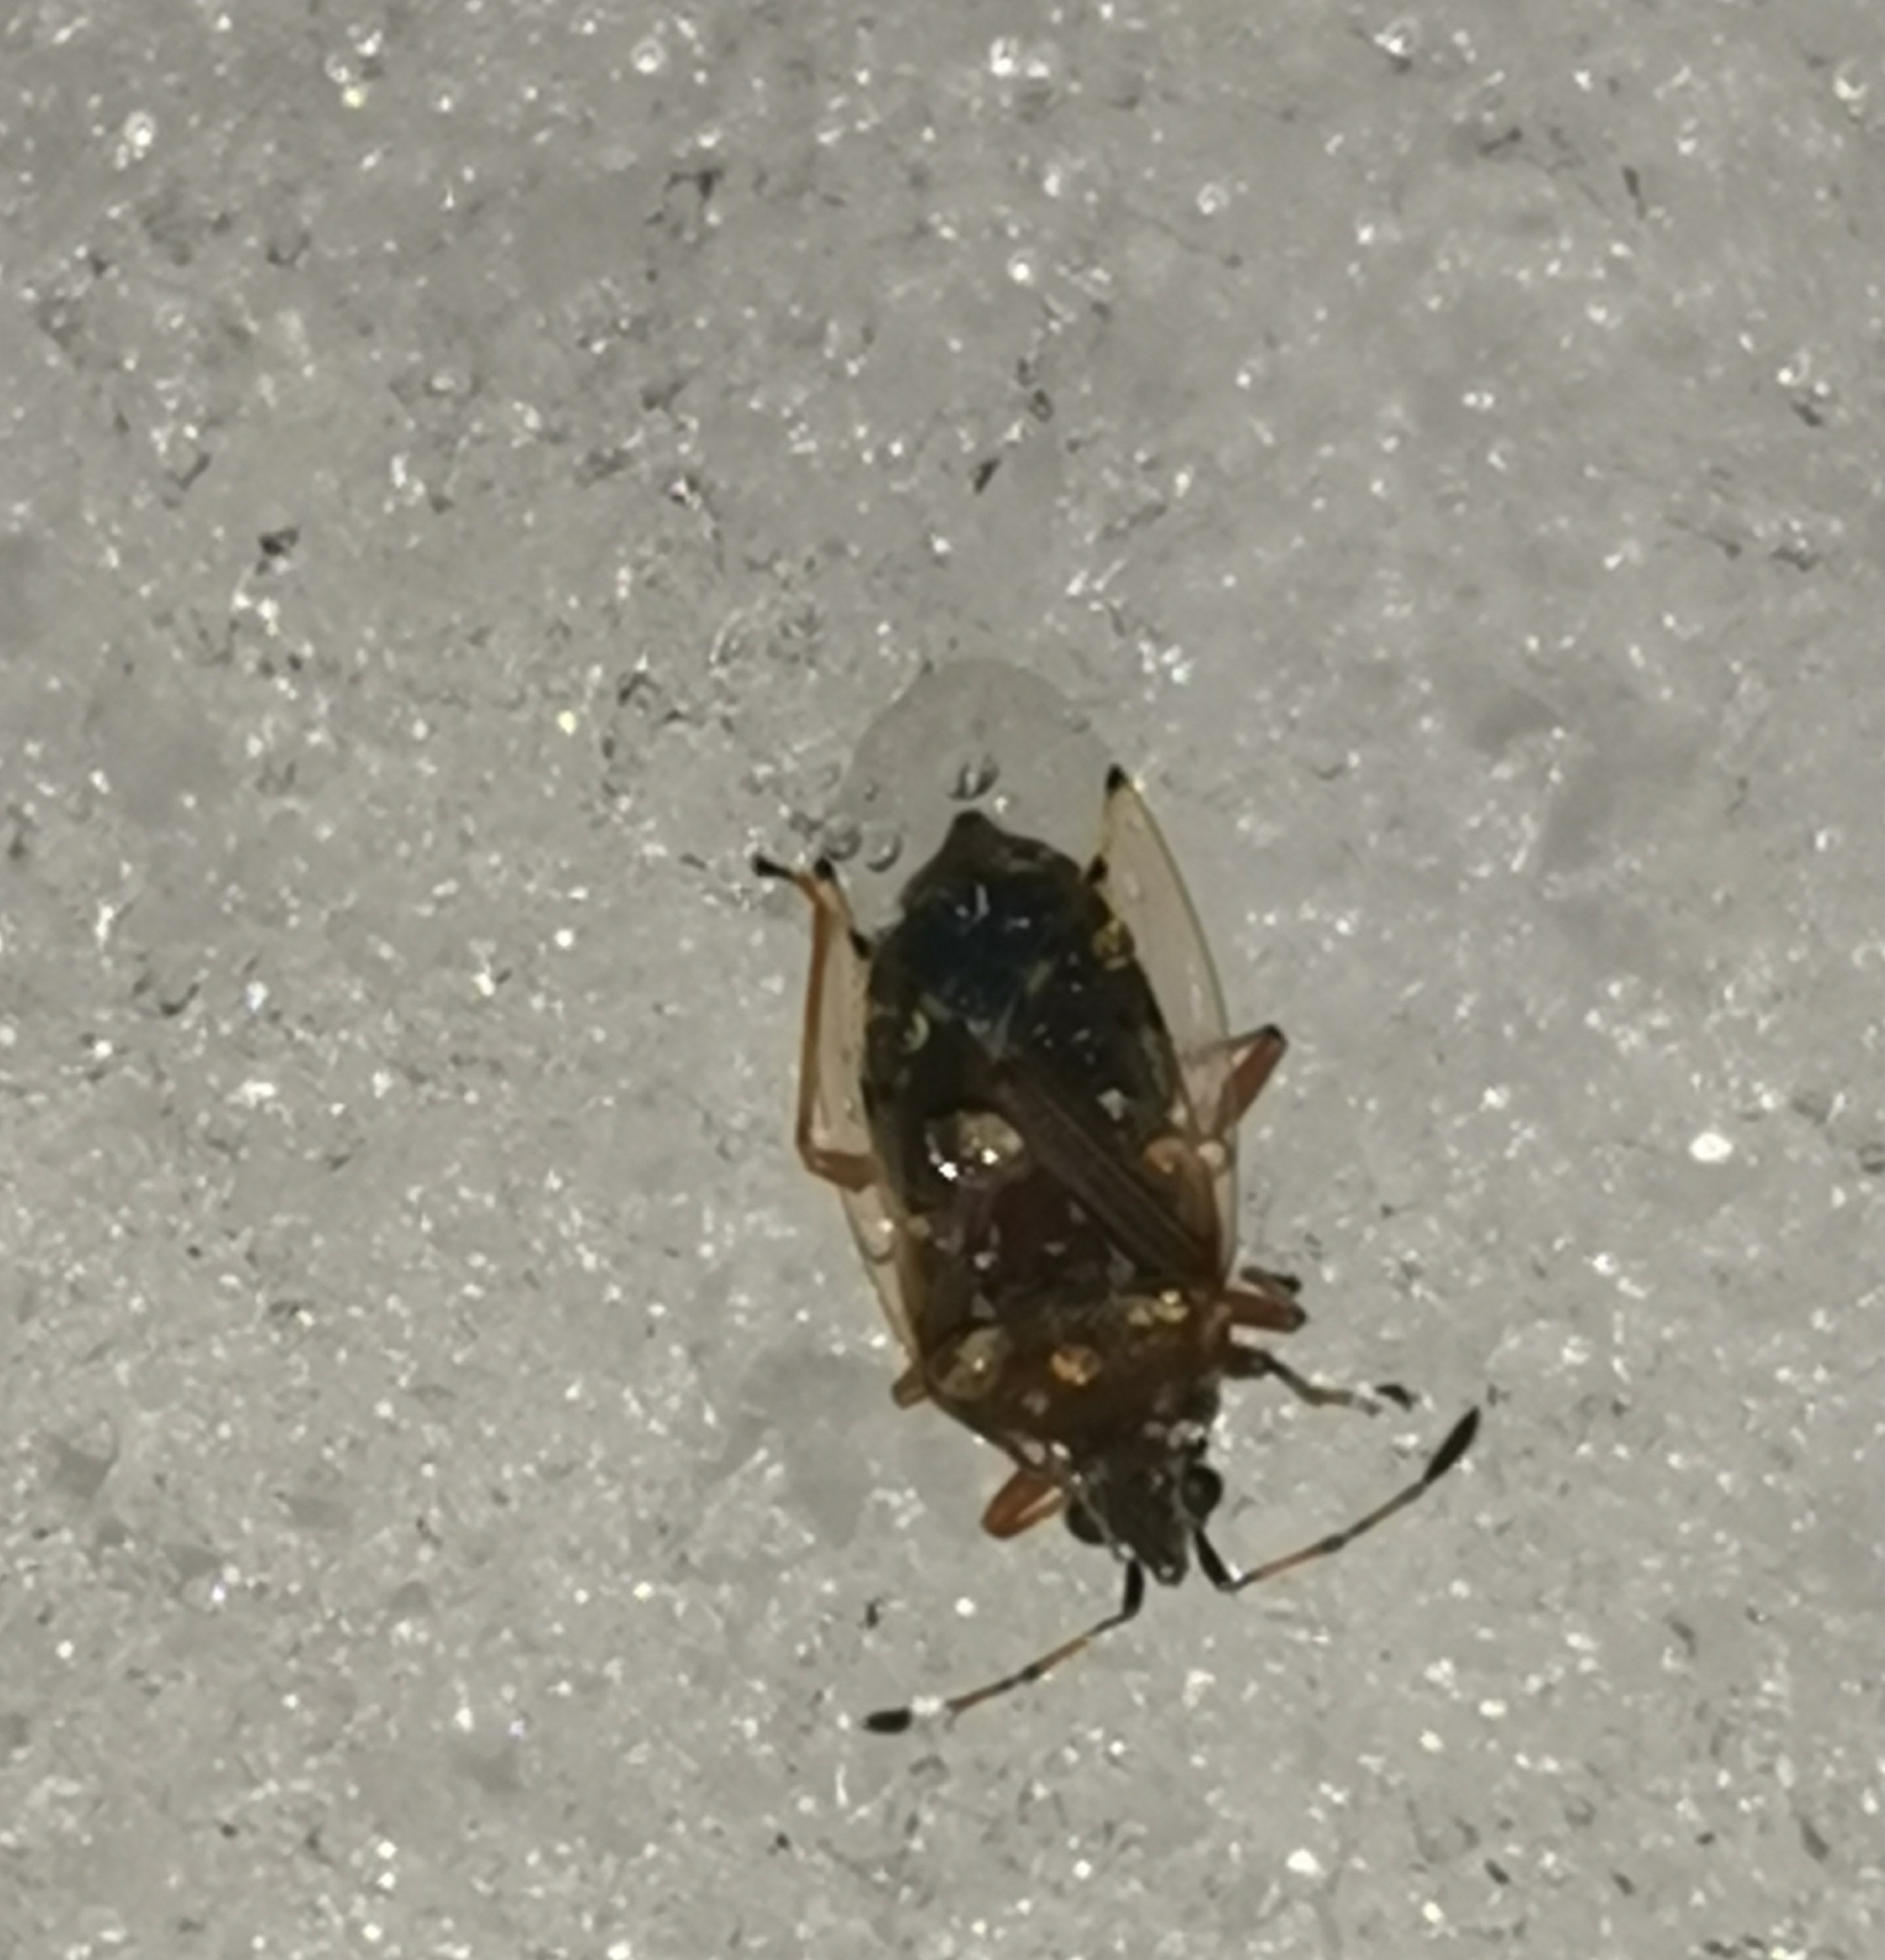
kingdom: Animalia
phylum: Arthropoda
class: Insecta
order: Hemiptera
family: Lygaeidae
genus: Kleidocerys
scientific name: Kleidocerys resedae
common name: Birch catkin bug
